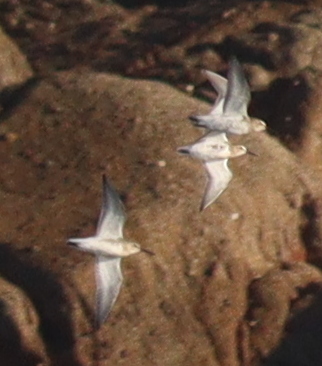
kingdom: Animalia
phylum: Chordata
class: Aves
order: Charadriiformes
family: Scolopacidae
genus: Calidris
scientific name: Calidris alpina
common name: Dunlin
